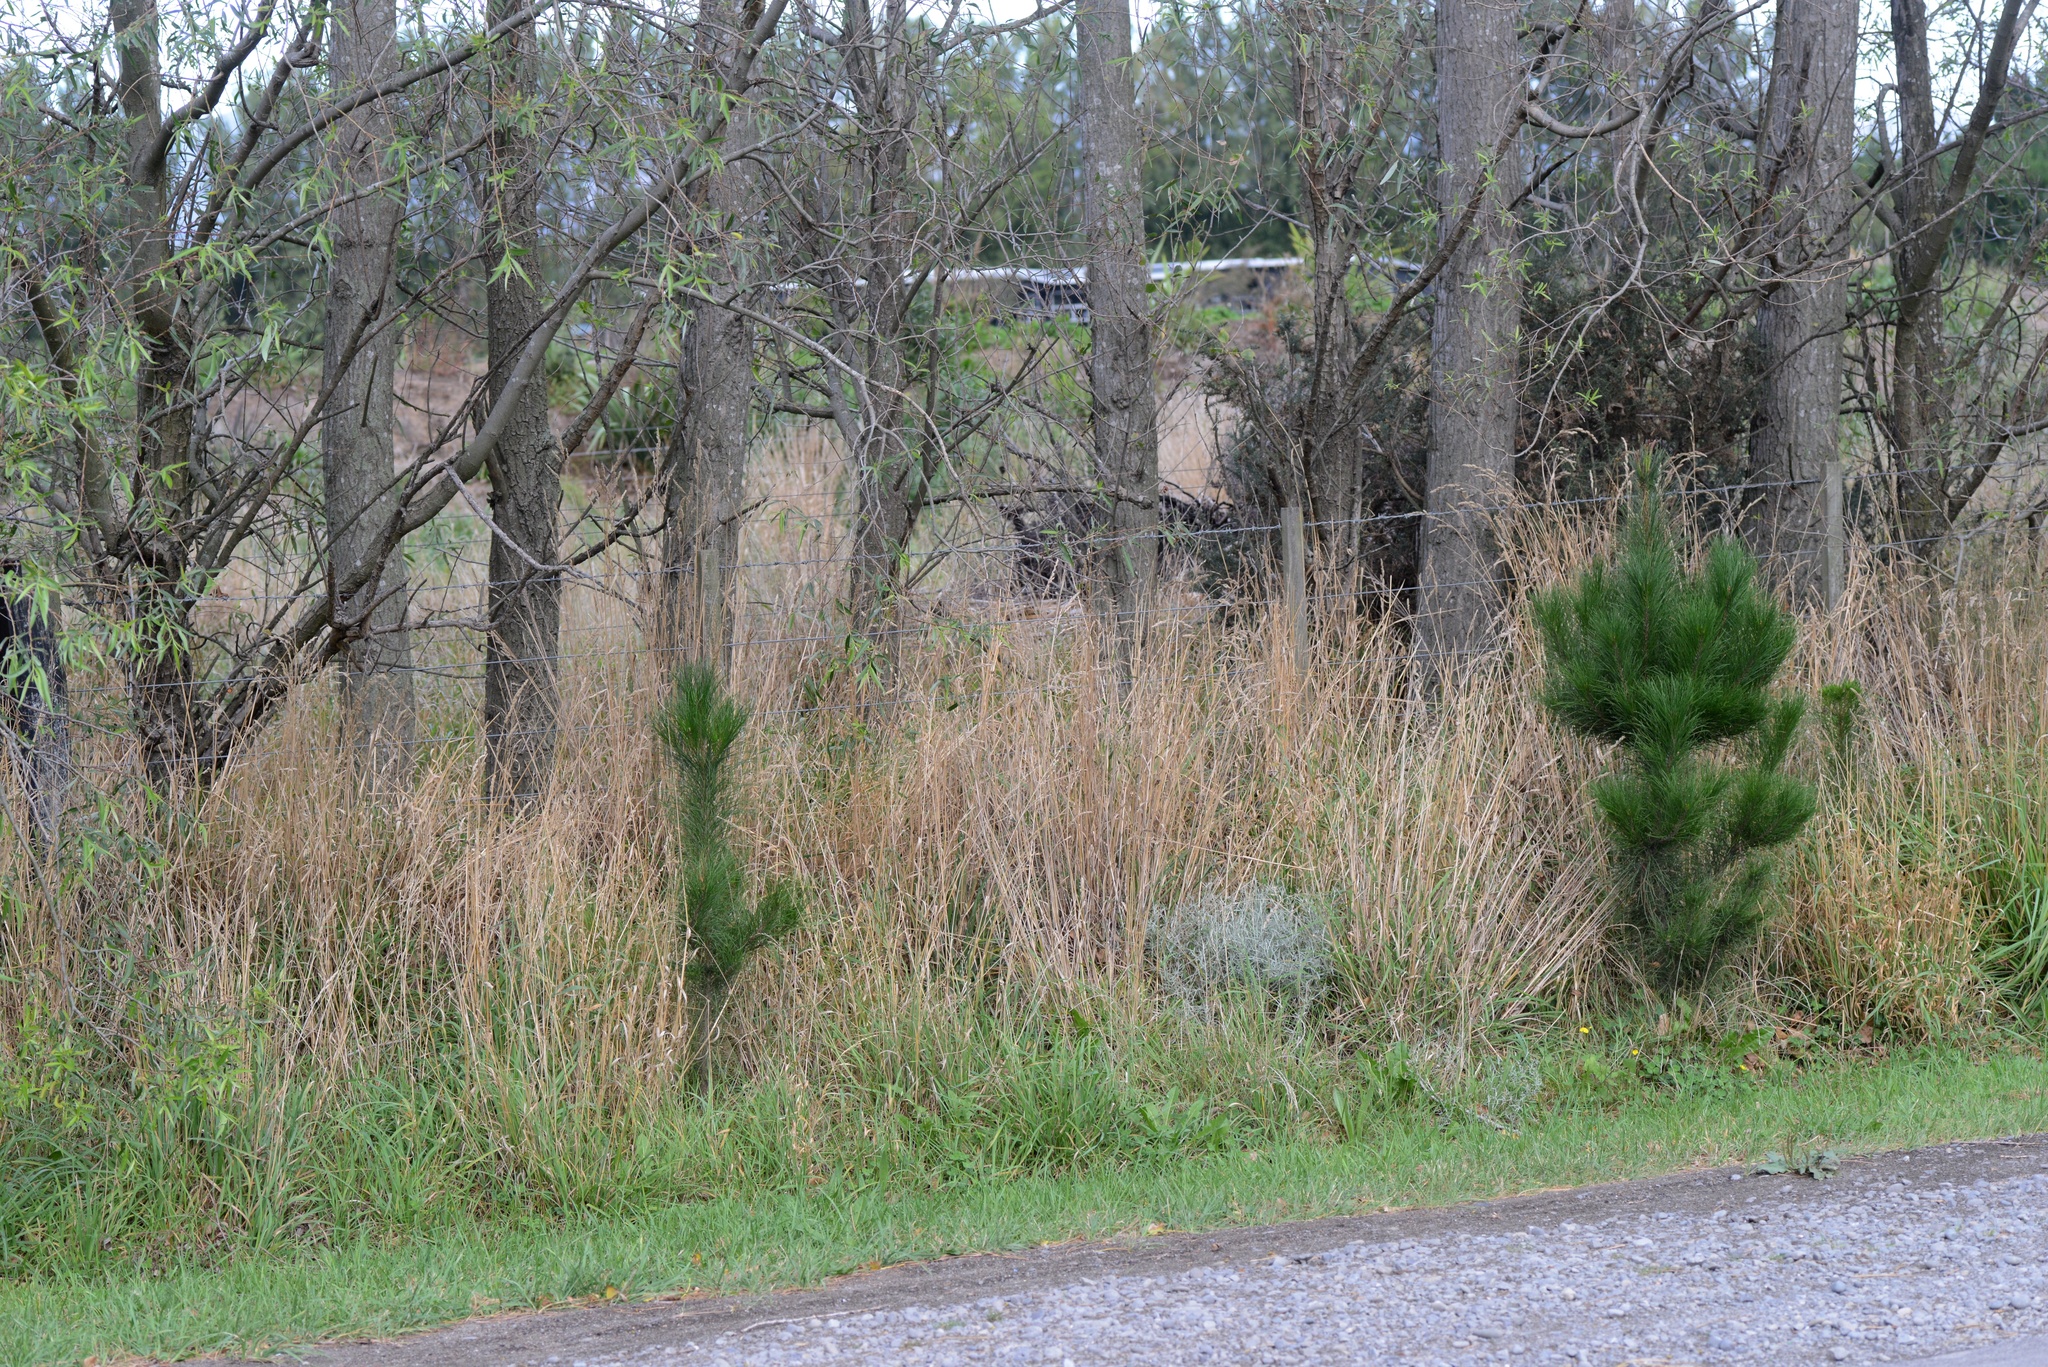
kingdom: Plantae
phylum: Tracheophyta
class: Magnoliopsida
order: Asterales
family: Asteraceae
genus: Senecio
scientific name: Senecio quadridentatus
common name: Cotton fireweed
